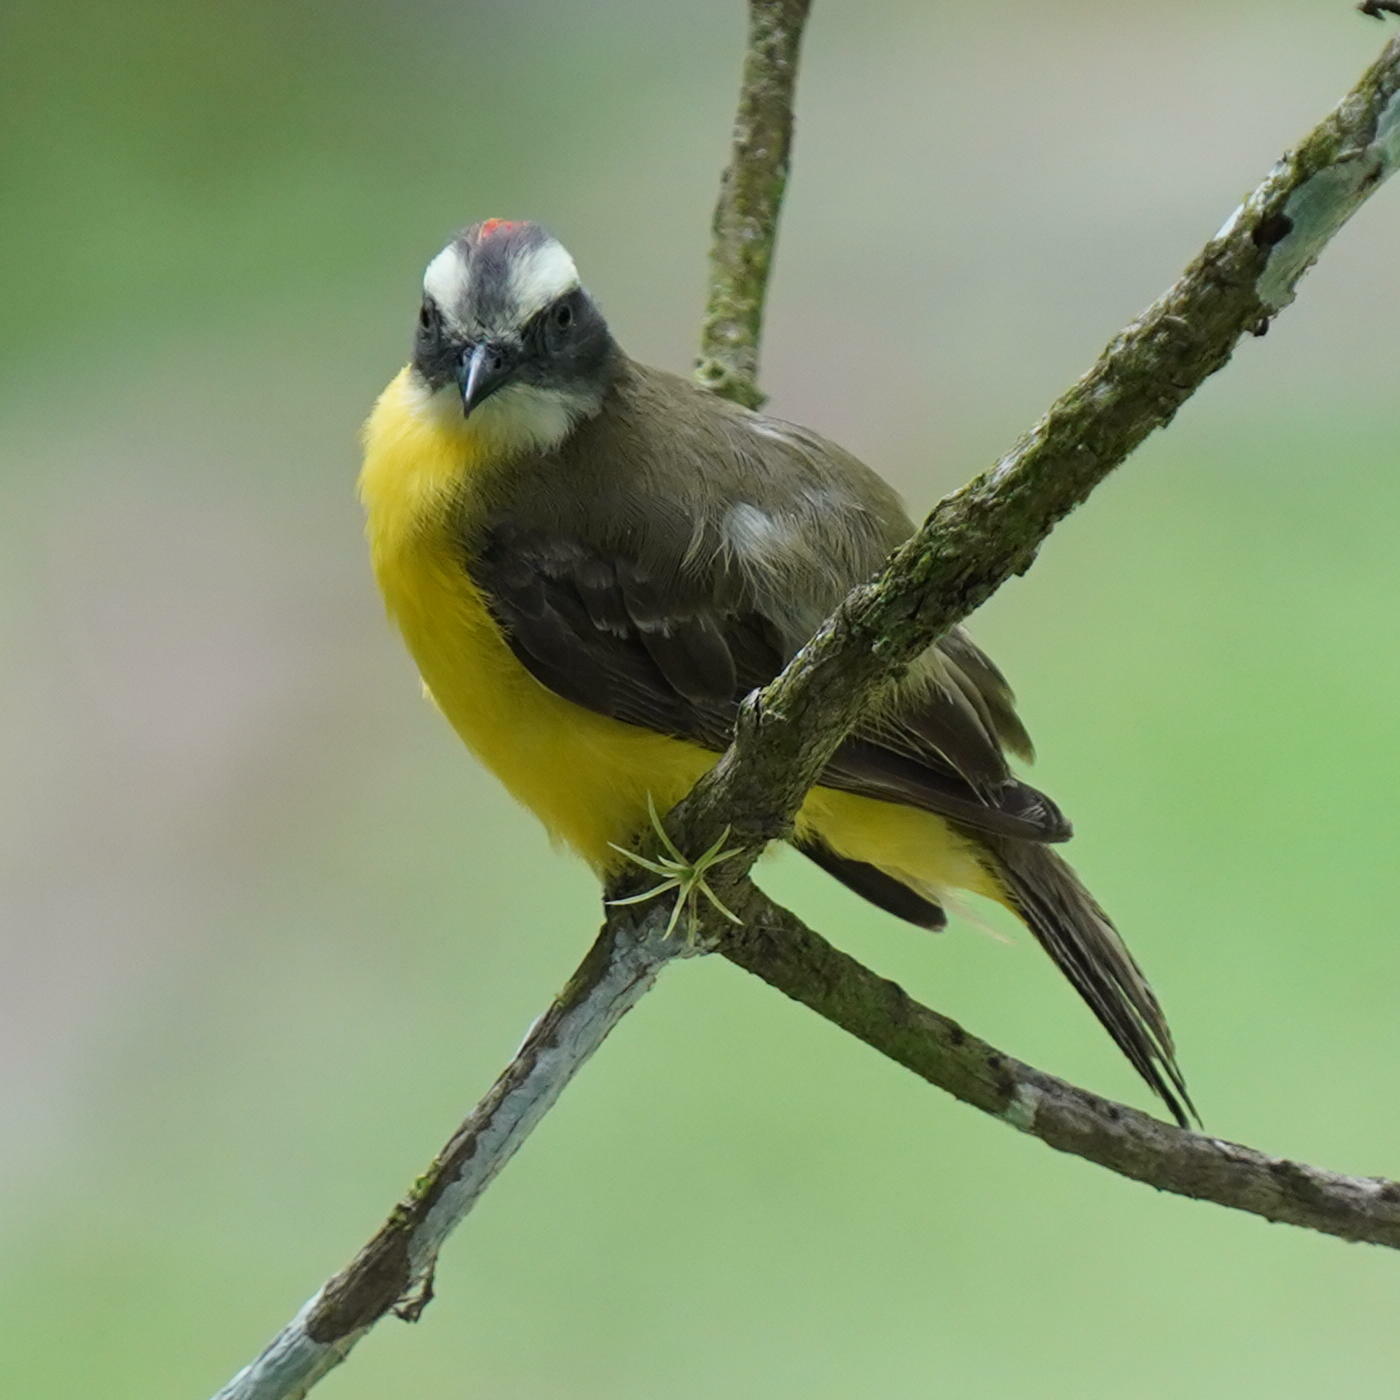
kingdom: Animalia
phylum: Chordata
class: Aves
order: Passeriformes
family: Tyrannidae
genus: Myiozetetes
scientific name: Myiozetetes similis
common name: Social flycatcher
